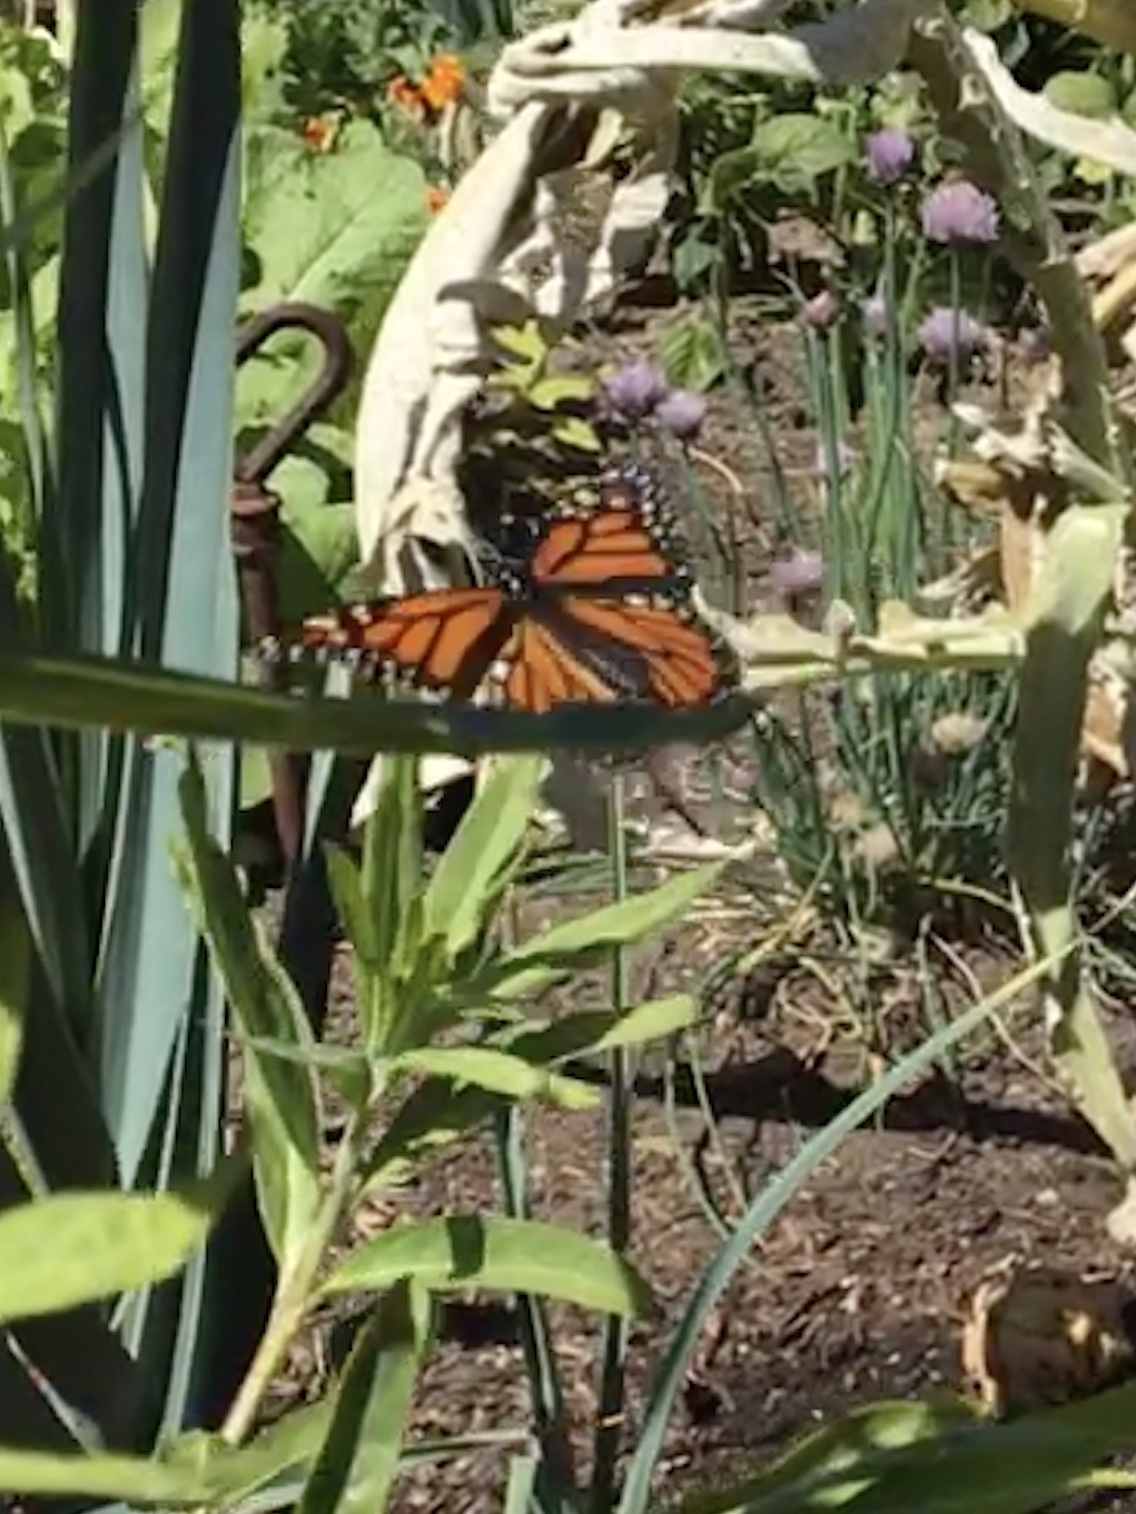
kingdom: Animalia
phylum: Arthropoda
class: Insecta
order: Lepidoptera
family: Nymphalidae
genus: Danaus
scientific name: Danaus plexippus
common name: Monarch
